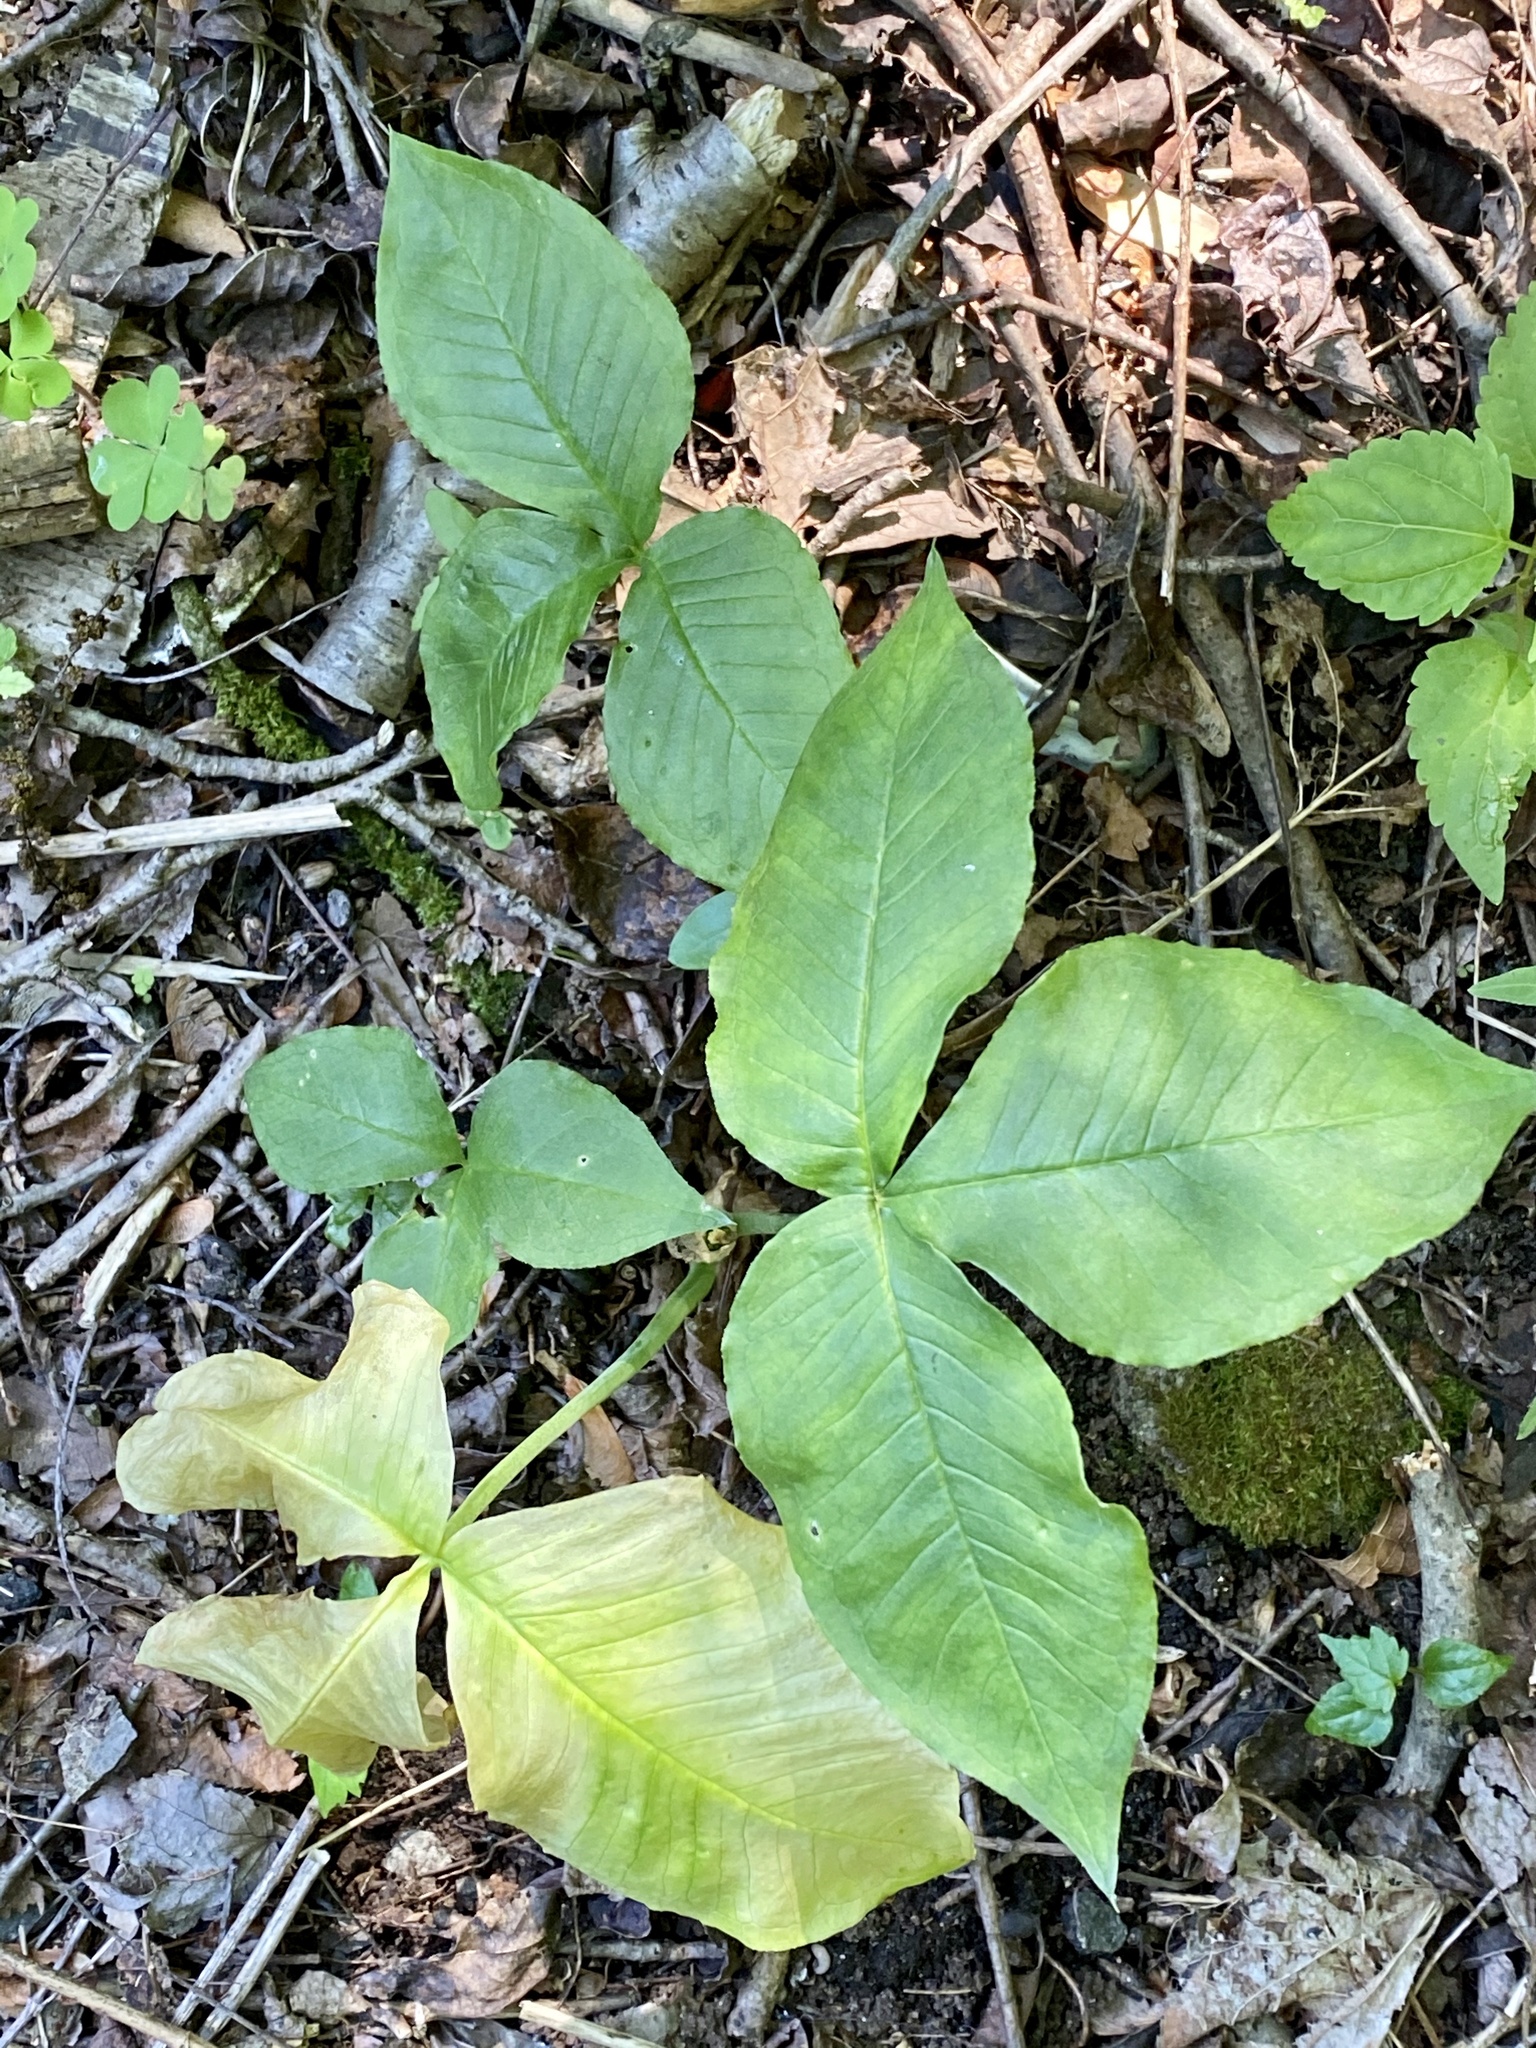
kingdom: Plantae
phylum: Tracheophyta
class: Liliopsida
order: Alismatales
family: Araceae
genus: Arisaema
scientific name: Arisaema triphyllum
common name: Jack-in-the-pulpit
